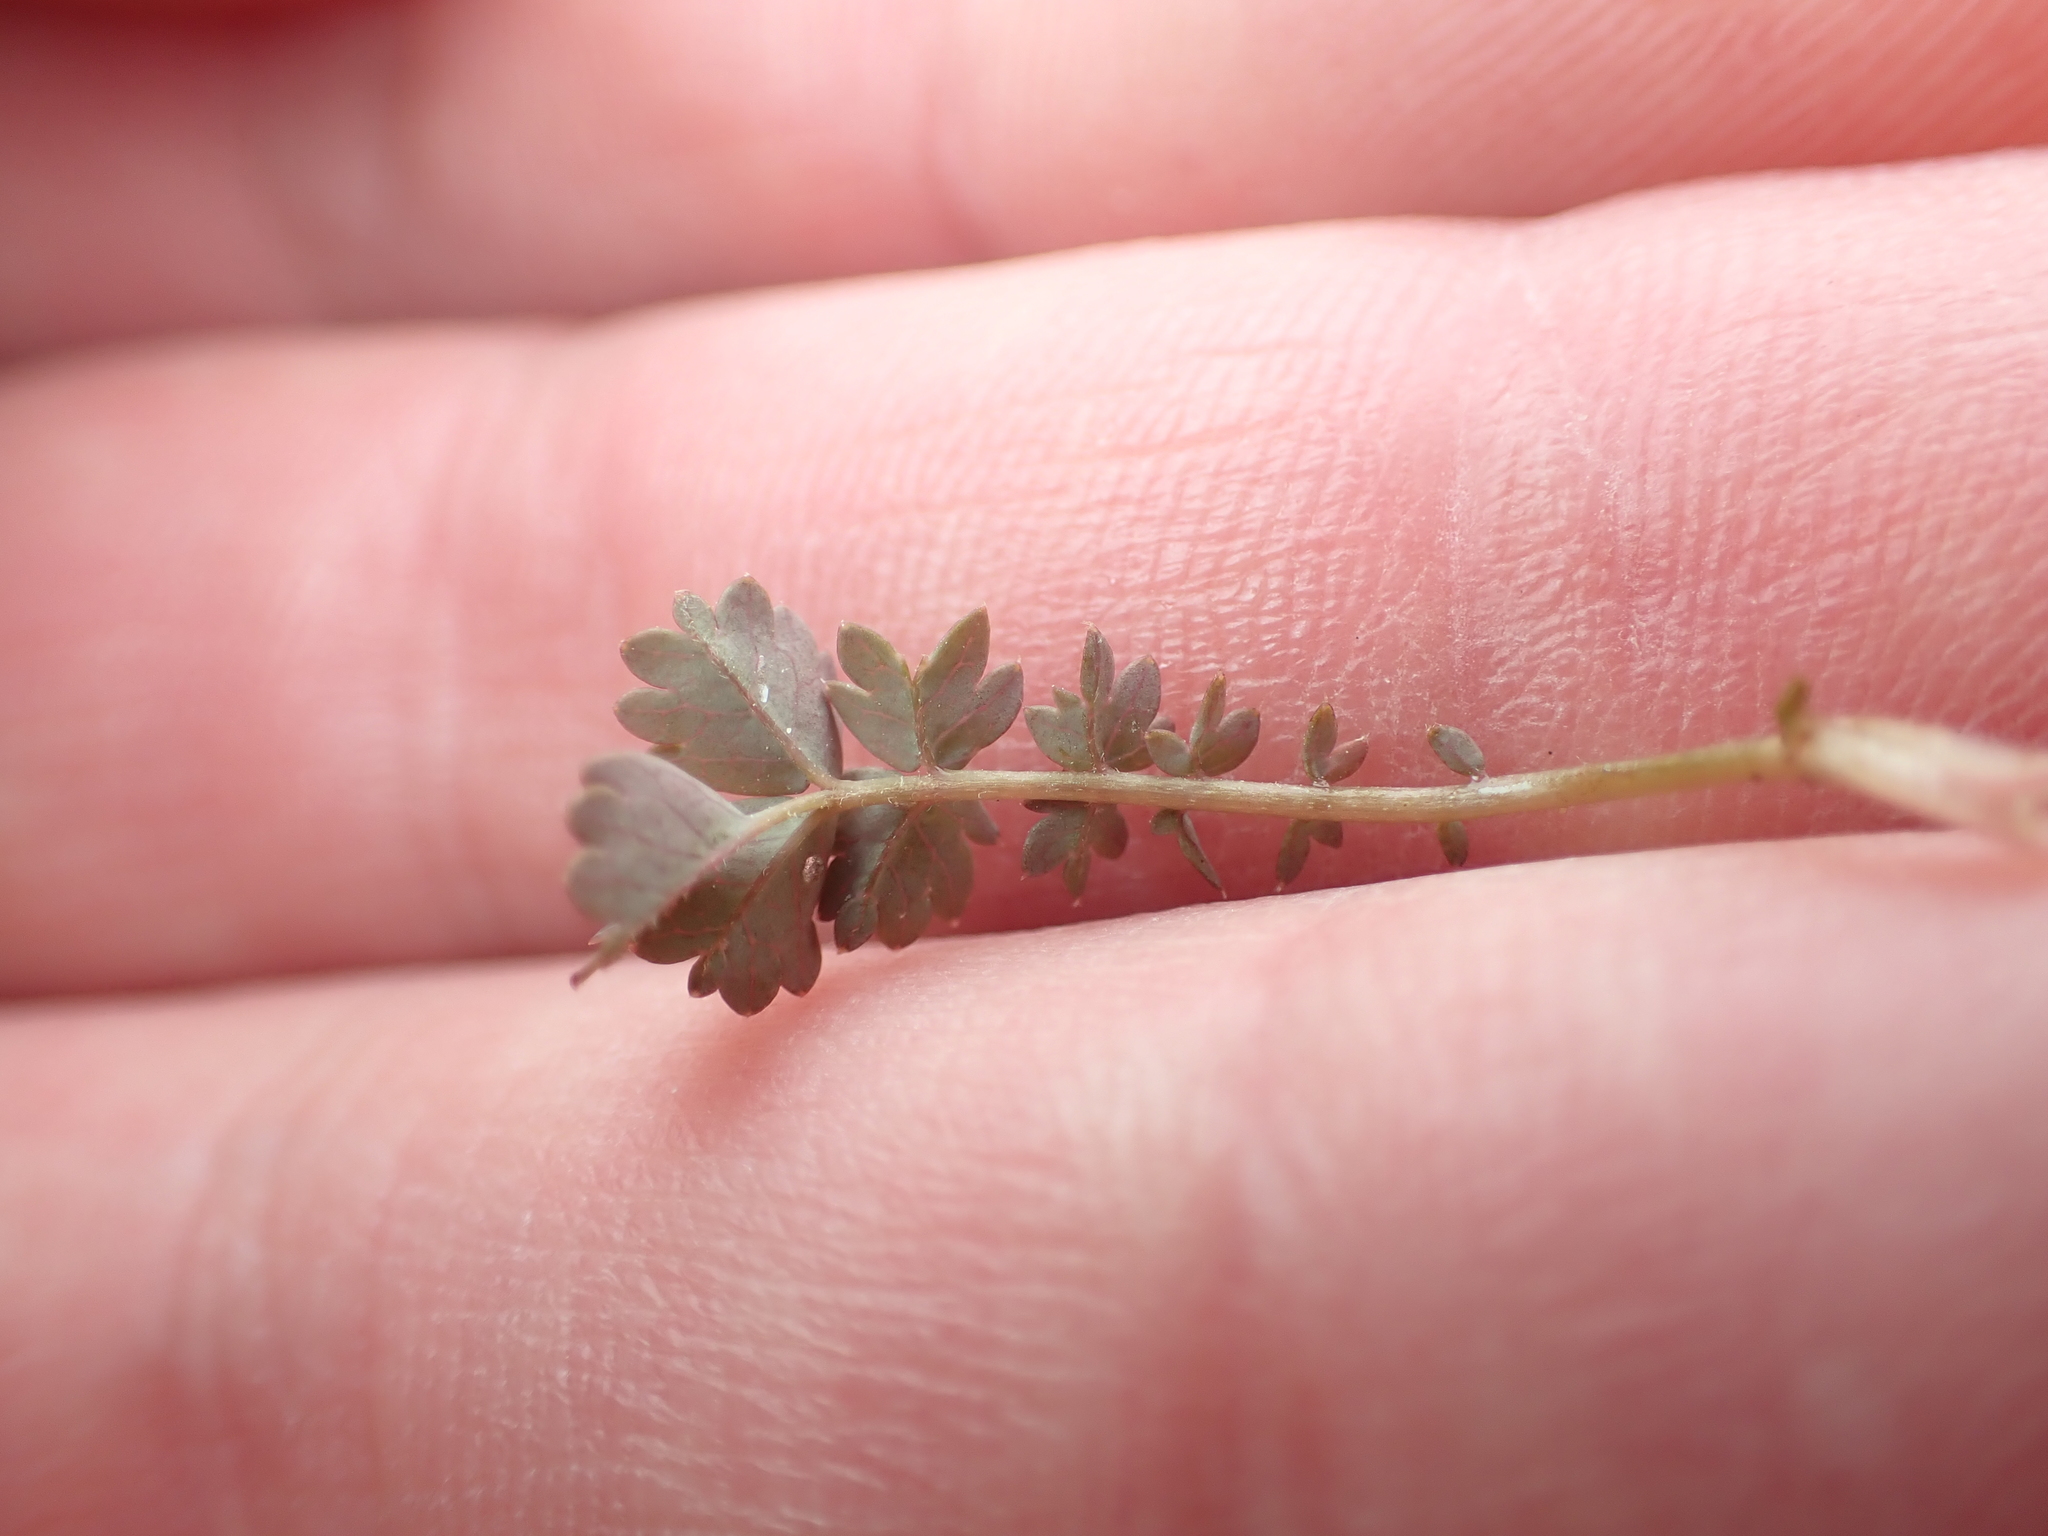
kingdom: Plantae
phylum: Tracheophyta
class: Magnoliopsida
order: Rosales
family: Rosaceae
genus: Acaena
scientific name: Acaena inermis
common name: Spineless acaena
